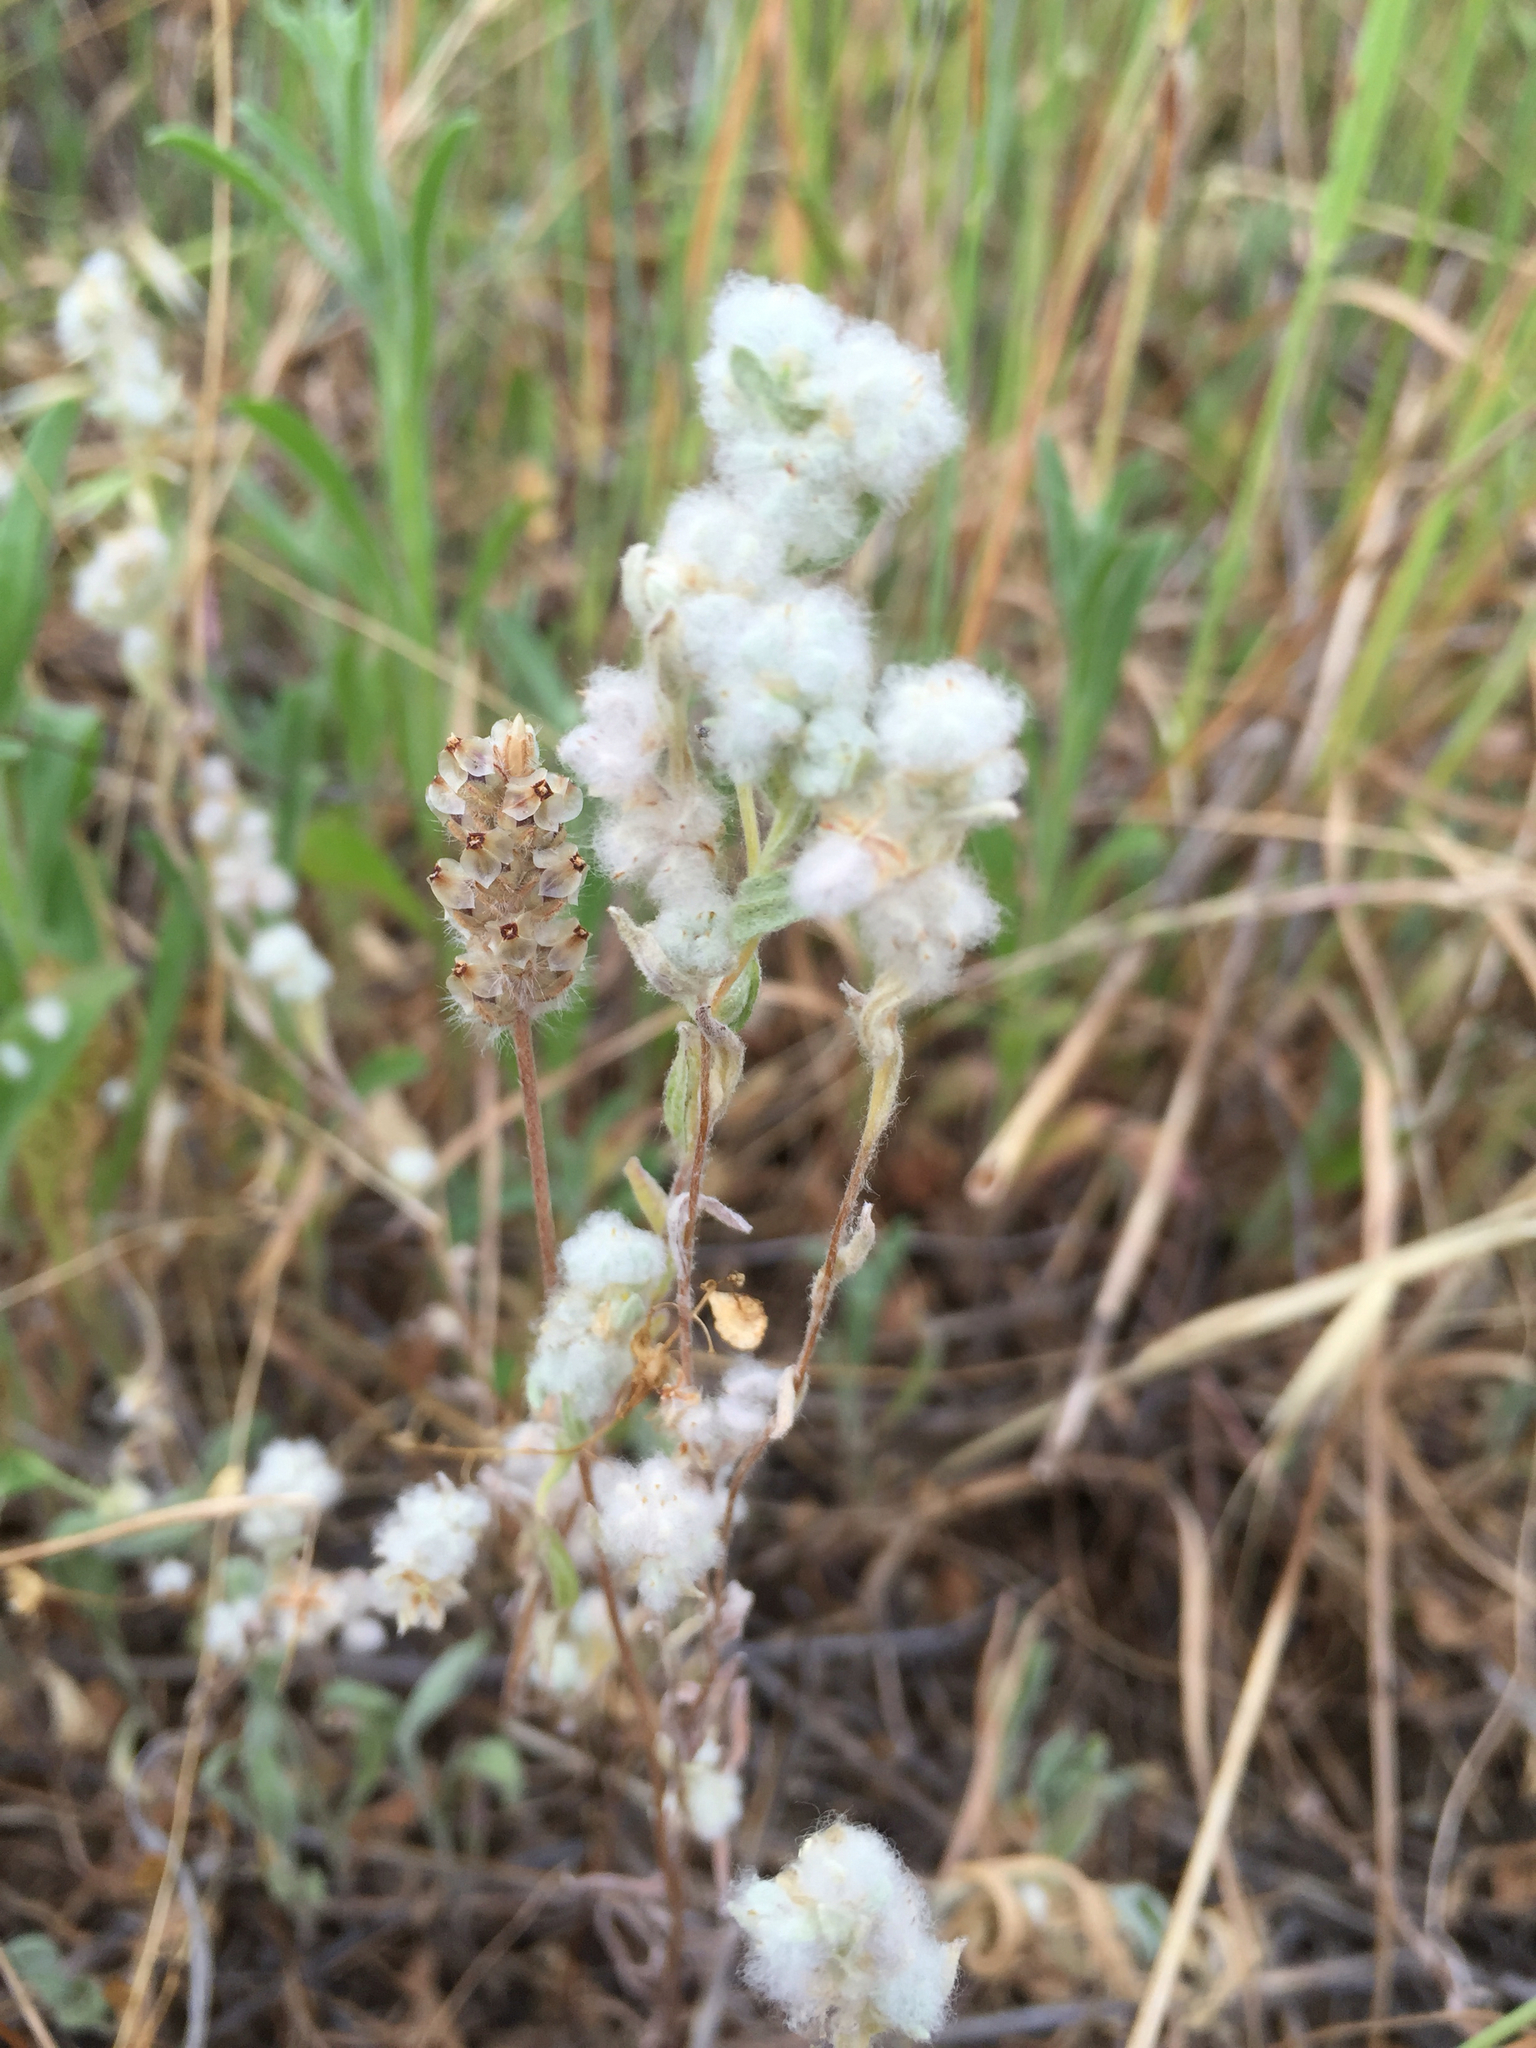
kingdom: Plantae
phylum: Tracheophyta
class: Magnoliopsida
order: Asterales
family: Asteraceae
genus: Bombycilaena
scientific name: Bombycilaena californica
